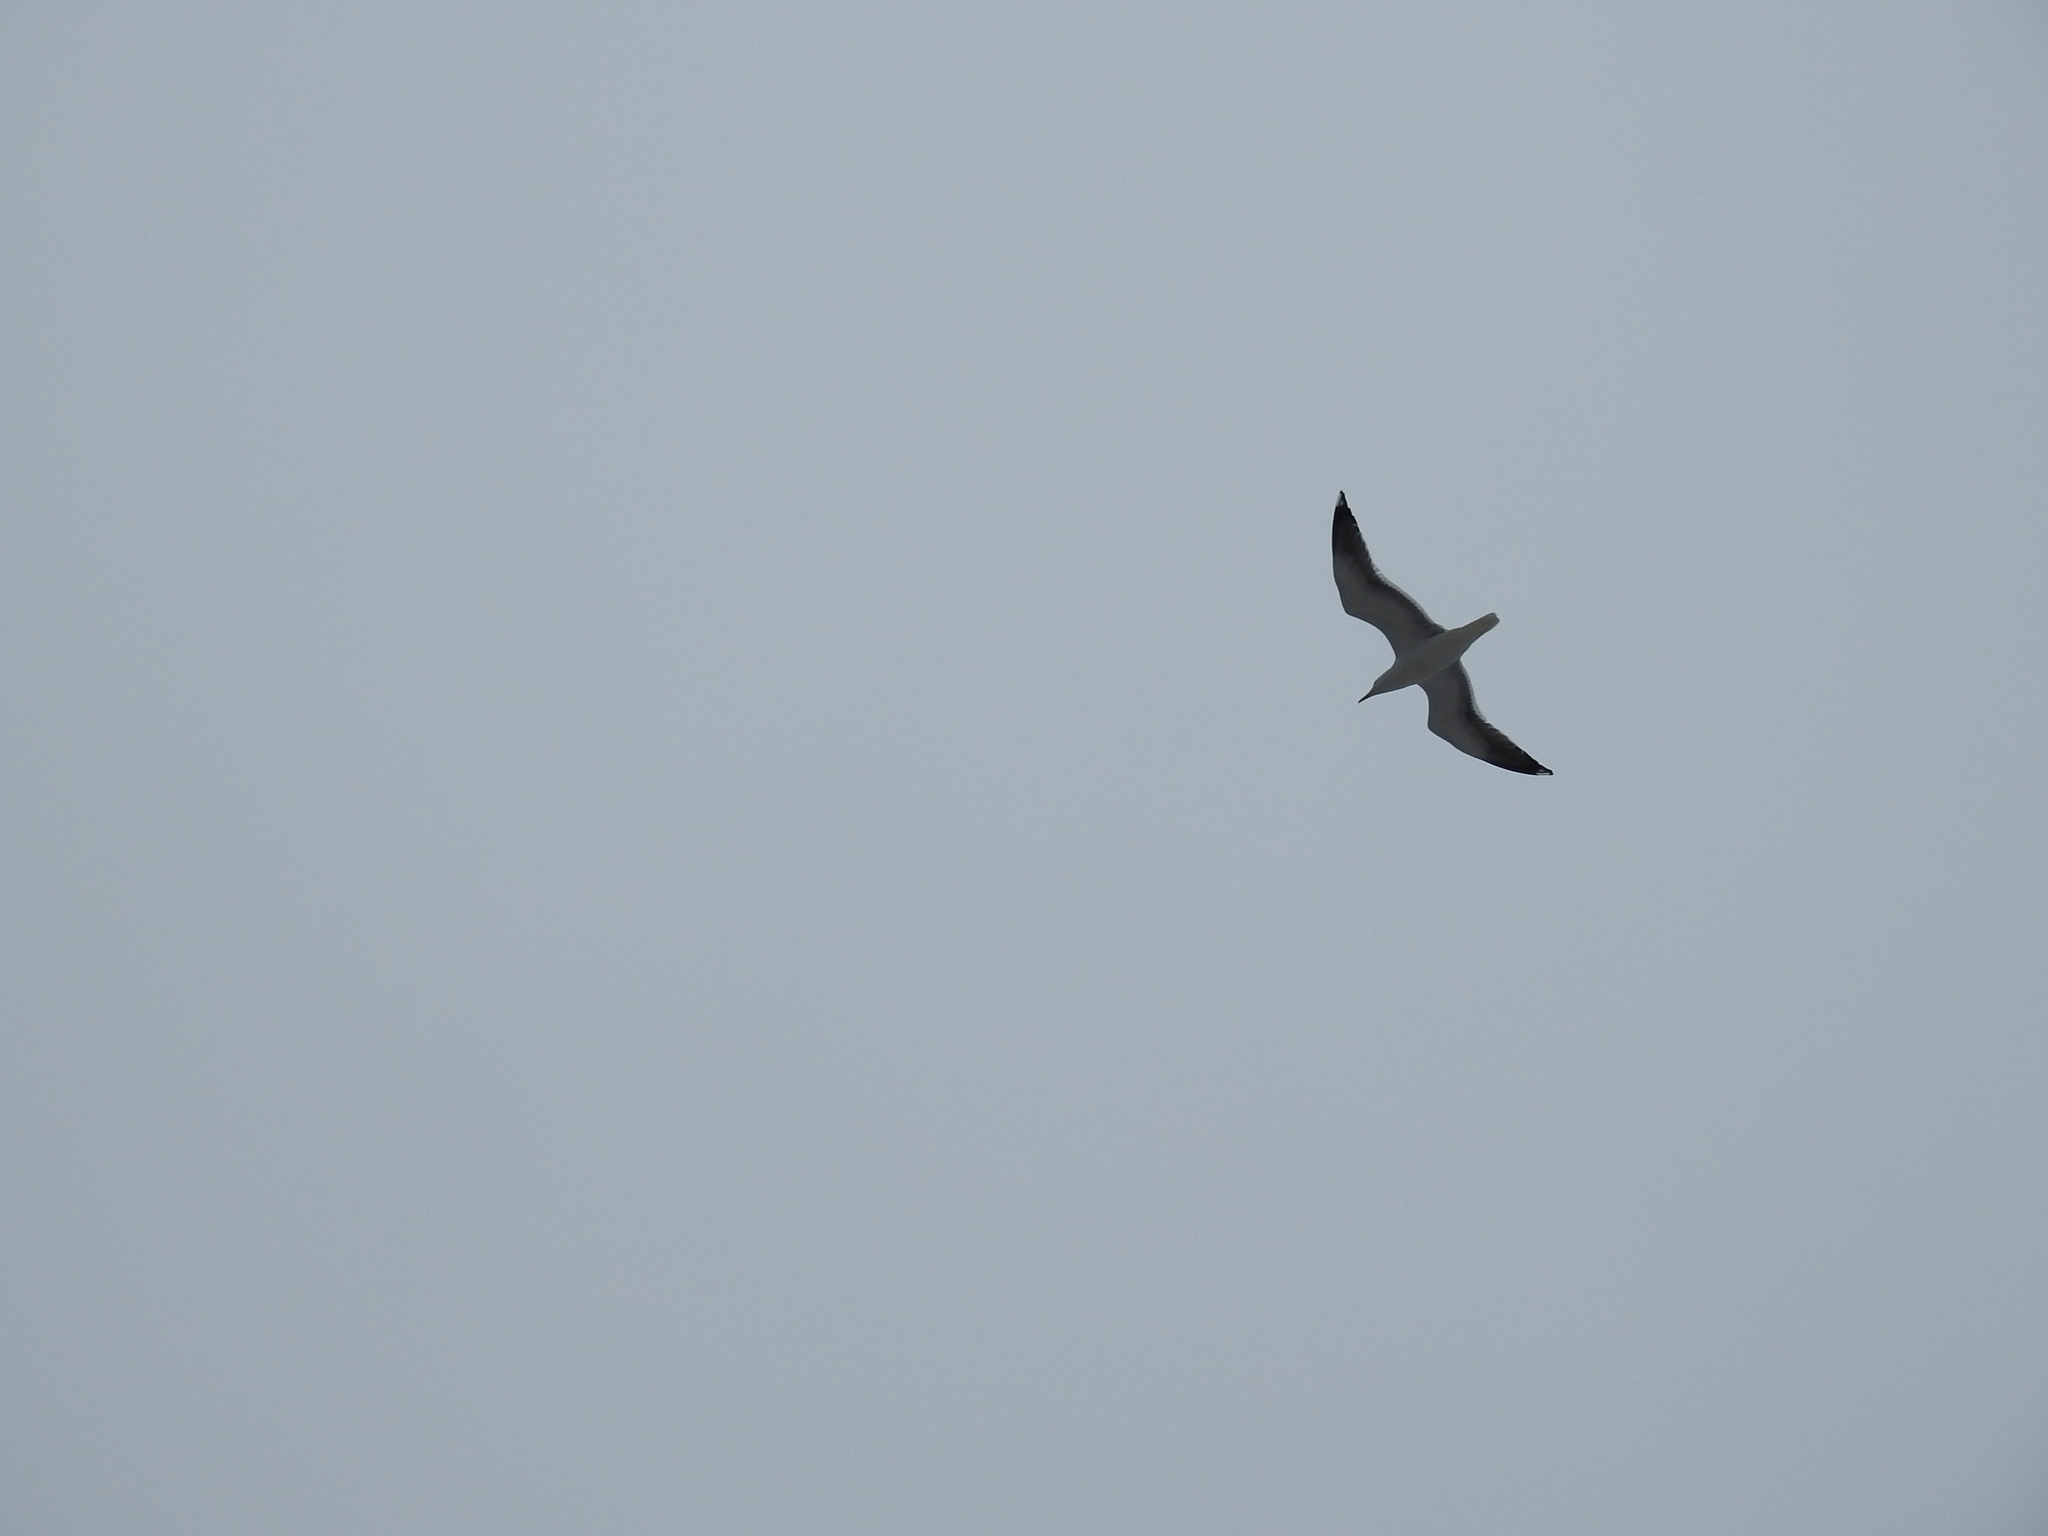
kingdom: Animalia
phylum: Chordata
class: Aves
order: Charadriiformes
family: Laridae
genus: Larus
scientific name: Larus fuscus
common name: Lesser black-backed gull
